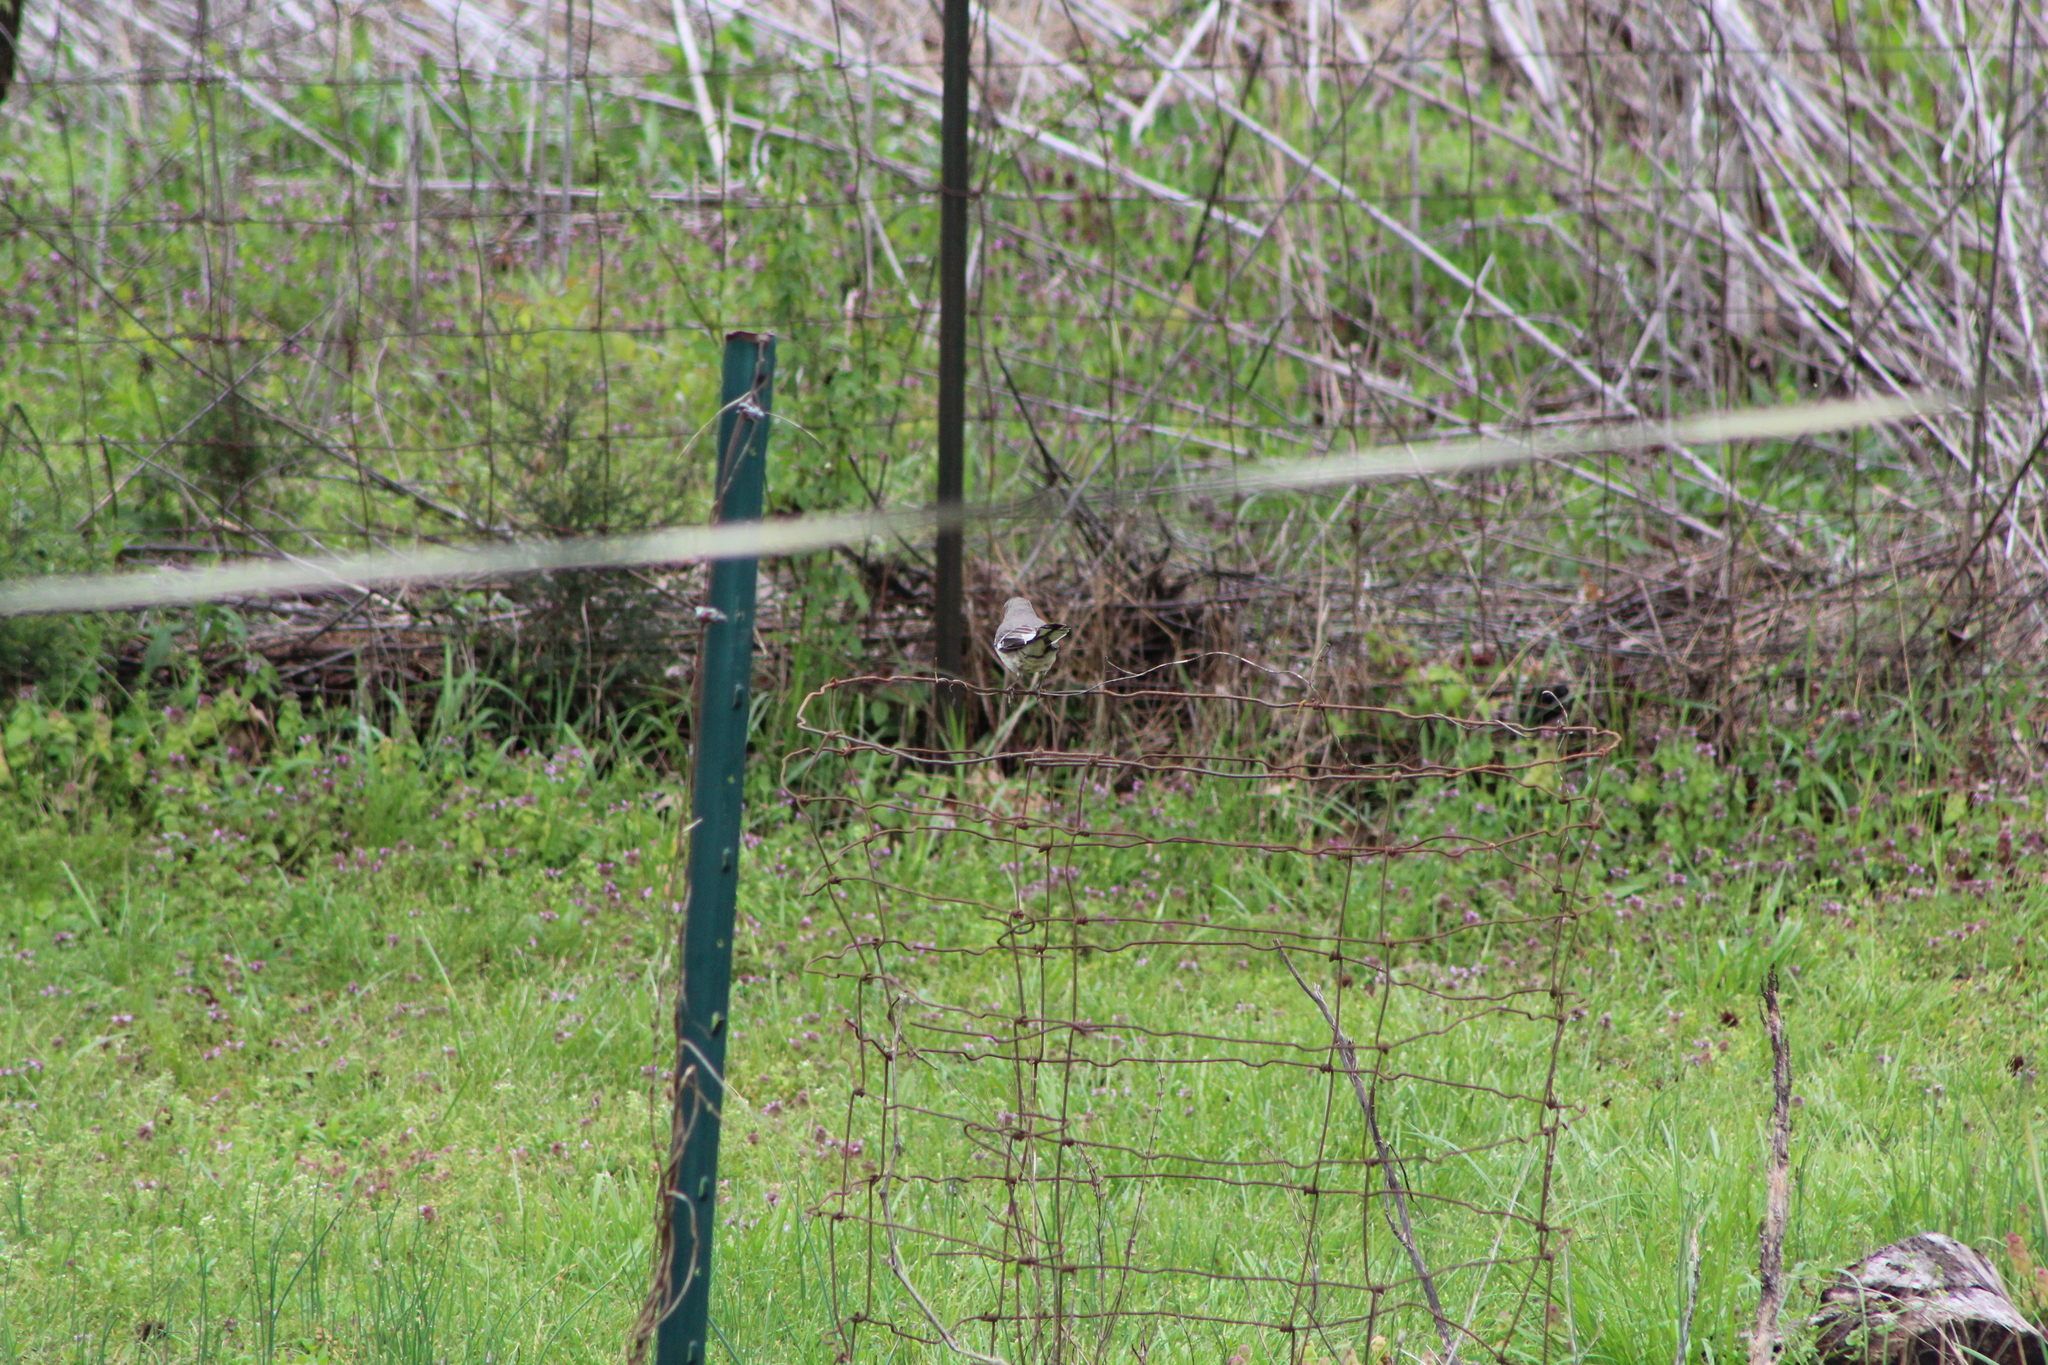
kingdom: Animalia
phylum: Chordata
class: Aves
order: Passeriformes
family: Mimidae
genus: Mimus
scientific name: Mimus polyglottos
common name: Northern mockingbird
